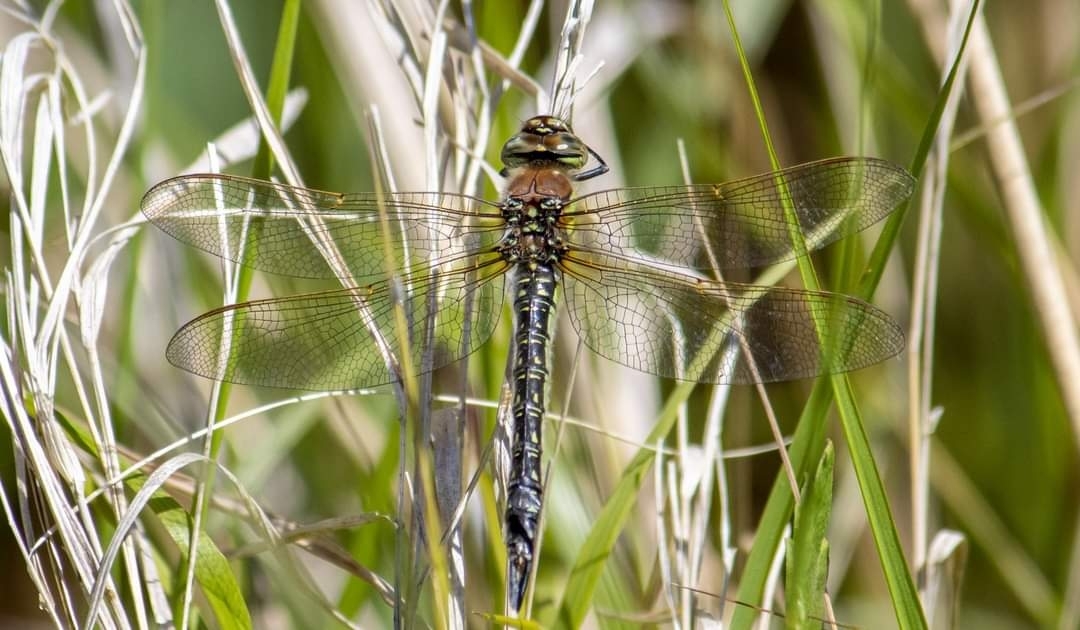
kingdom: Animalia
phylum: Arthropoda
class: Insecta
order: Odonata
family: Aeshnidae
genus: Brachytron
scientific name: Brachytron pratense
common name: Hairy hawker
